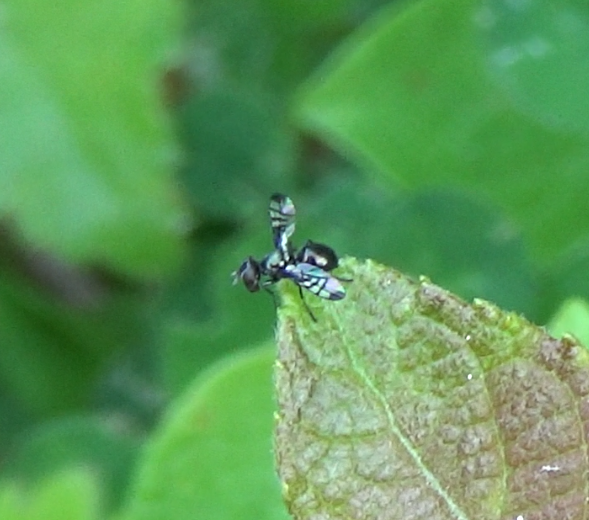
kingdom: Animalia
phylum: Arthropoda
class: Insecta
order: Diptera
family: Platystomatidae
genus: Rivellia
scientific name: Rivellia syngenesiae
